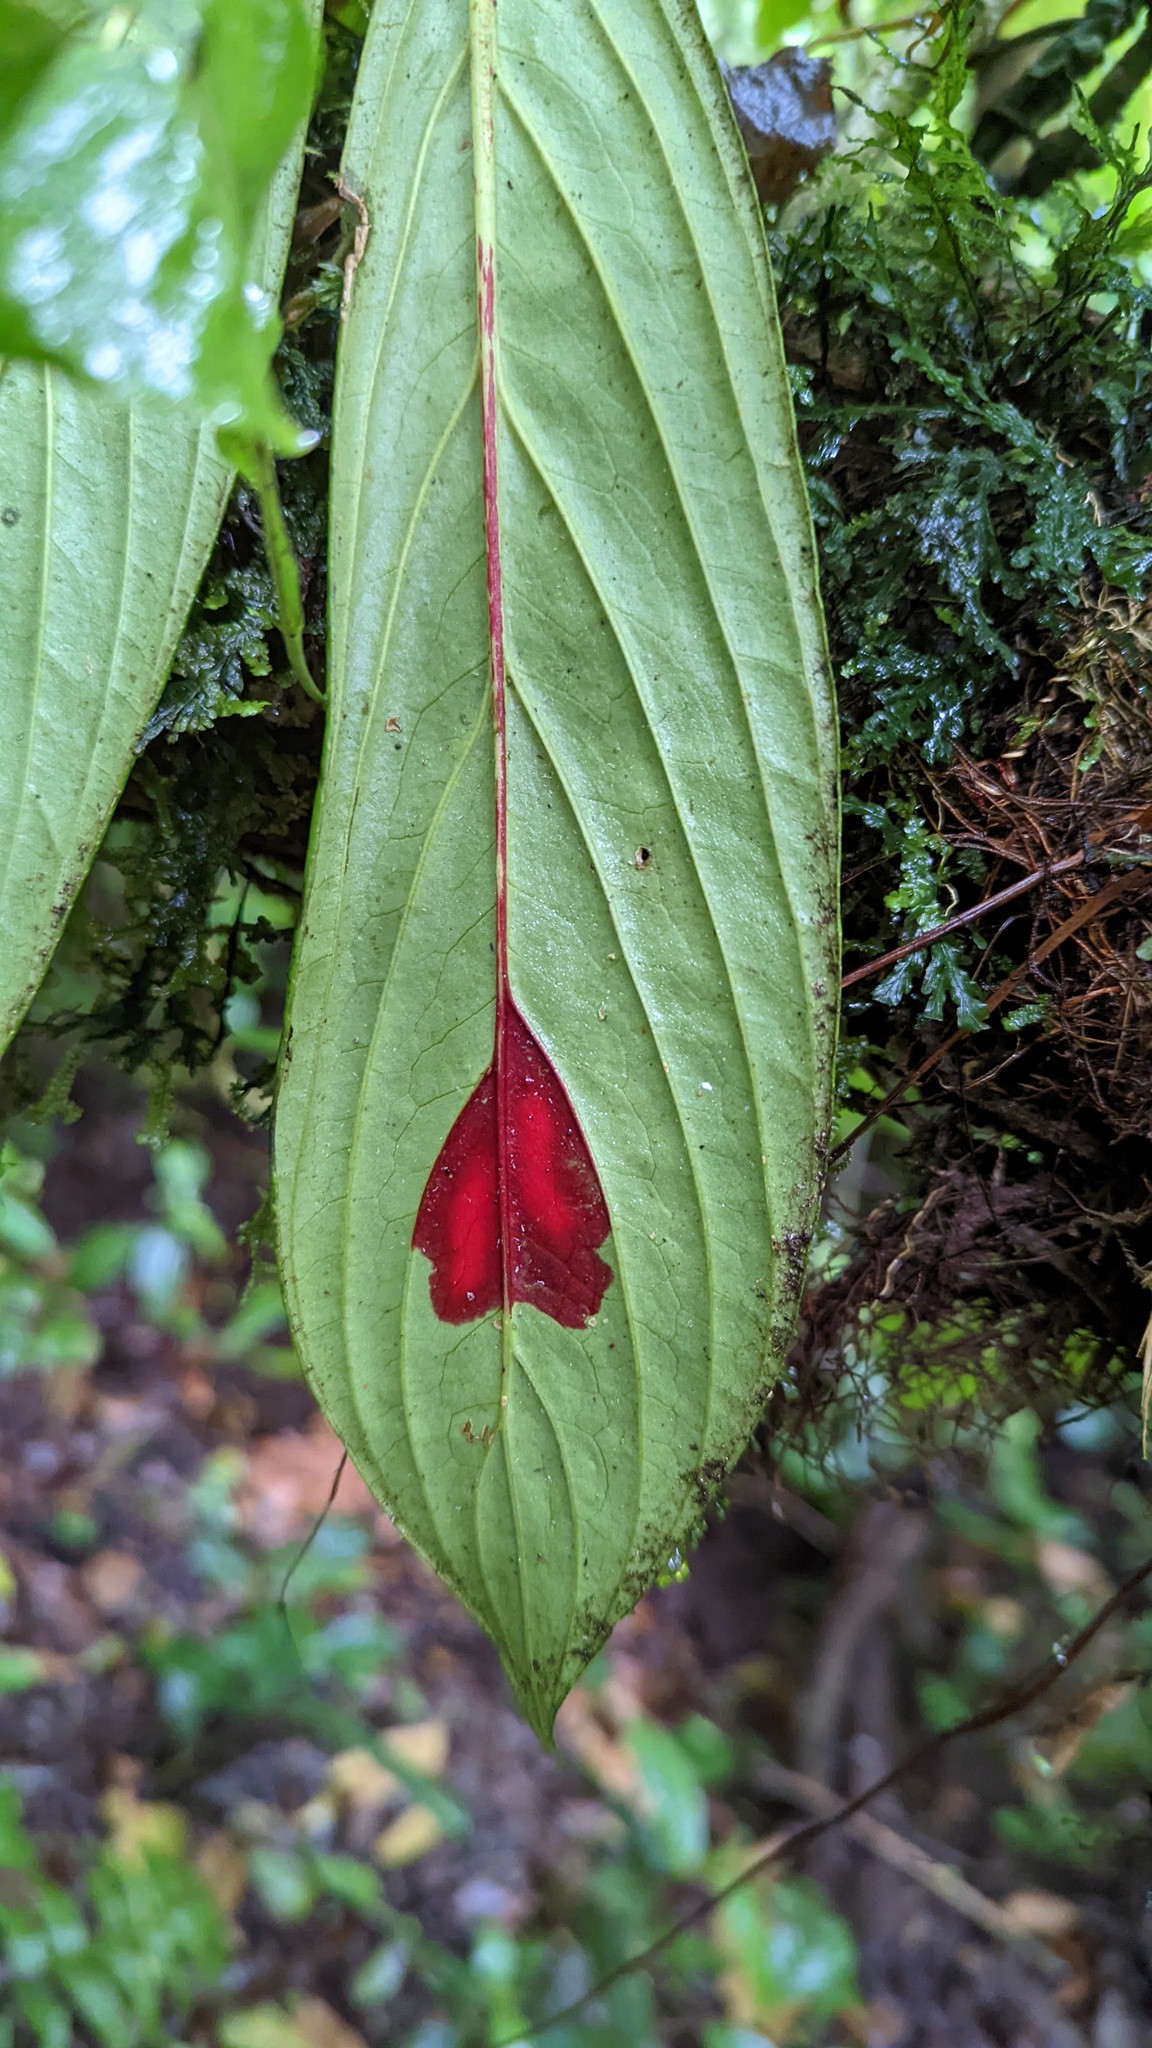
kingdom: Plantae
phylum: Tracheophyta
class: Magnoliopsida
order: Lamiales
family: Gesneriaceae
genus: Columnea
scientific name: Columnea consanguinea
